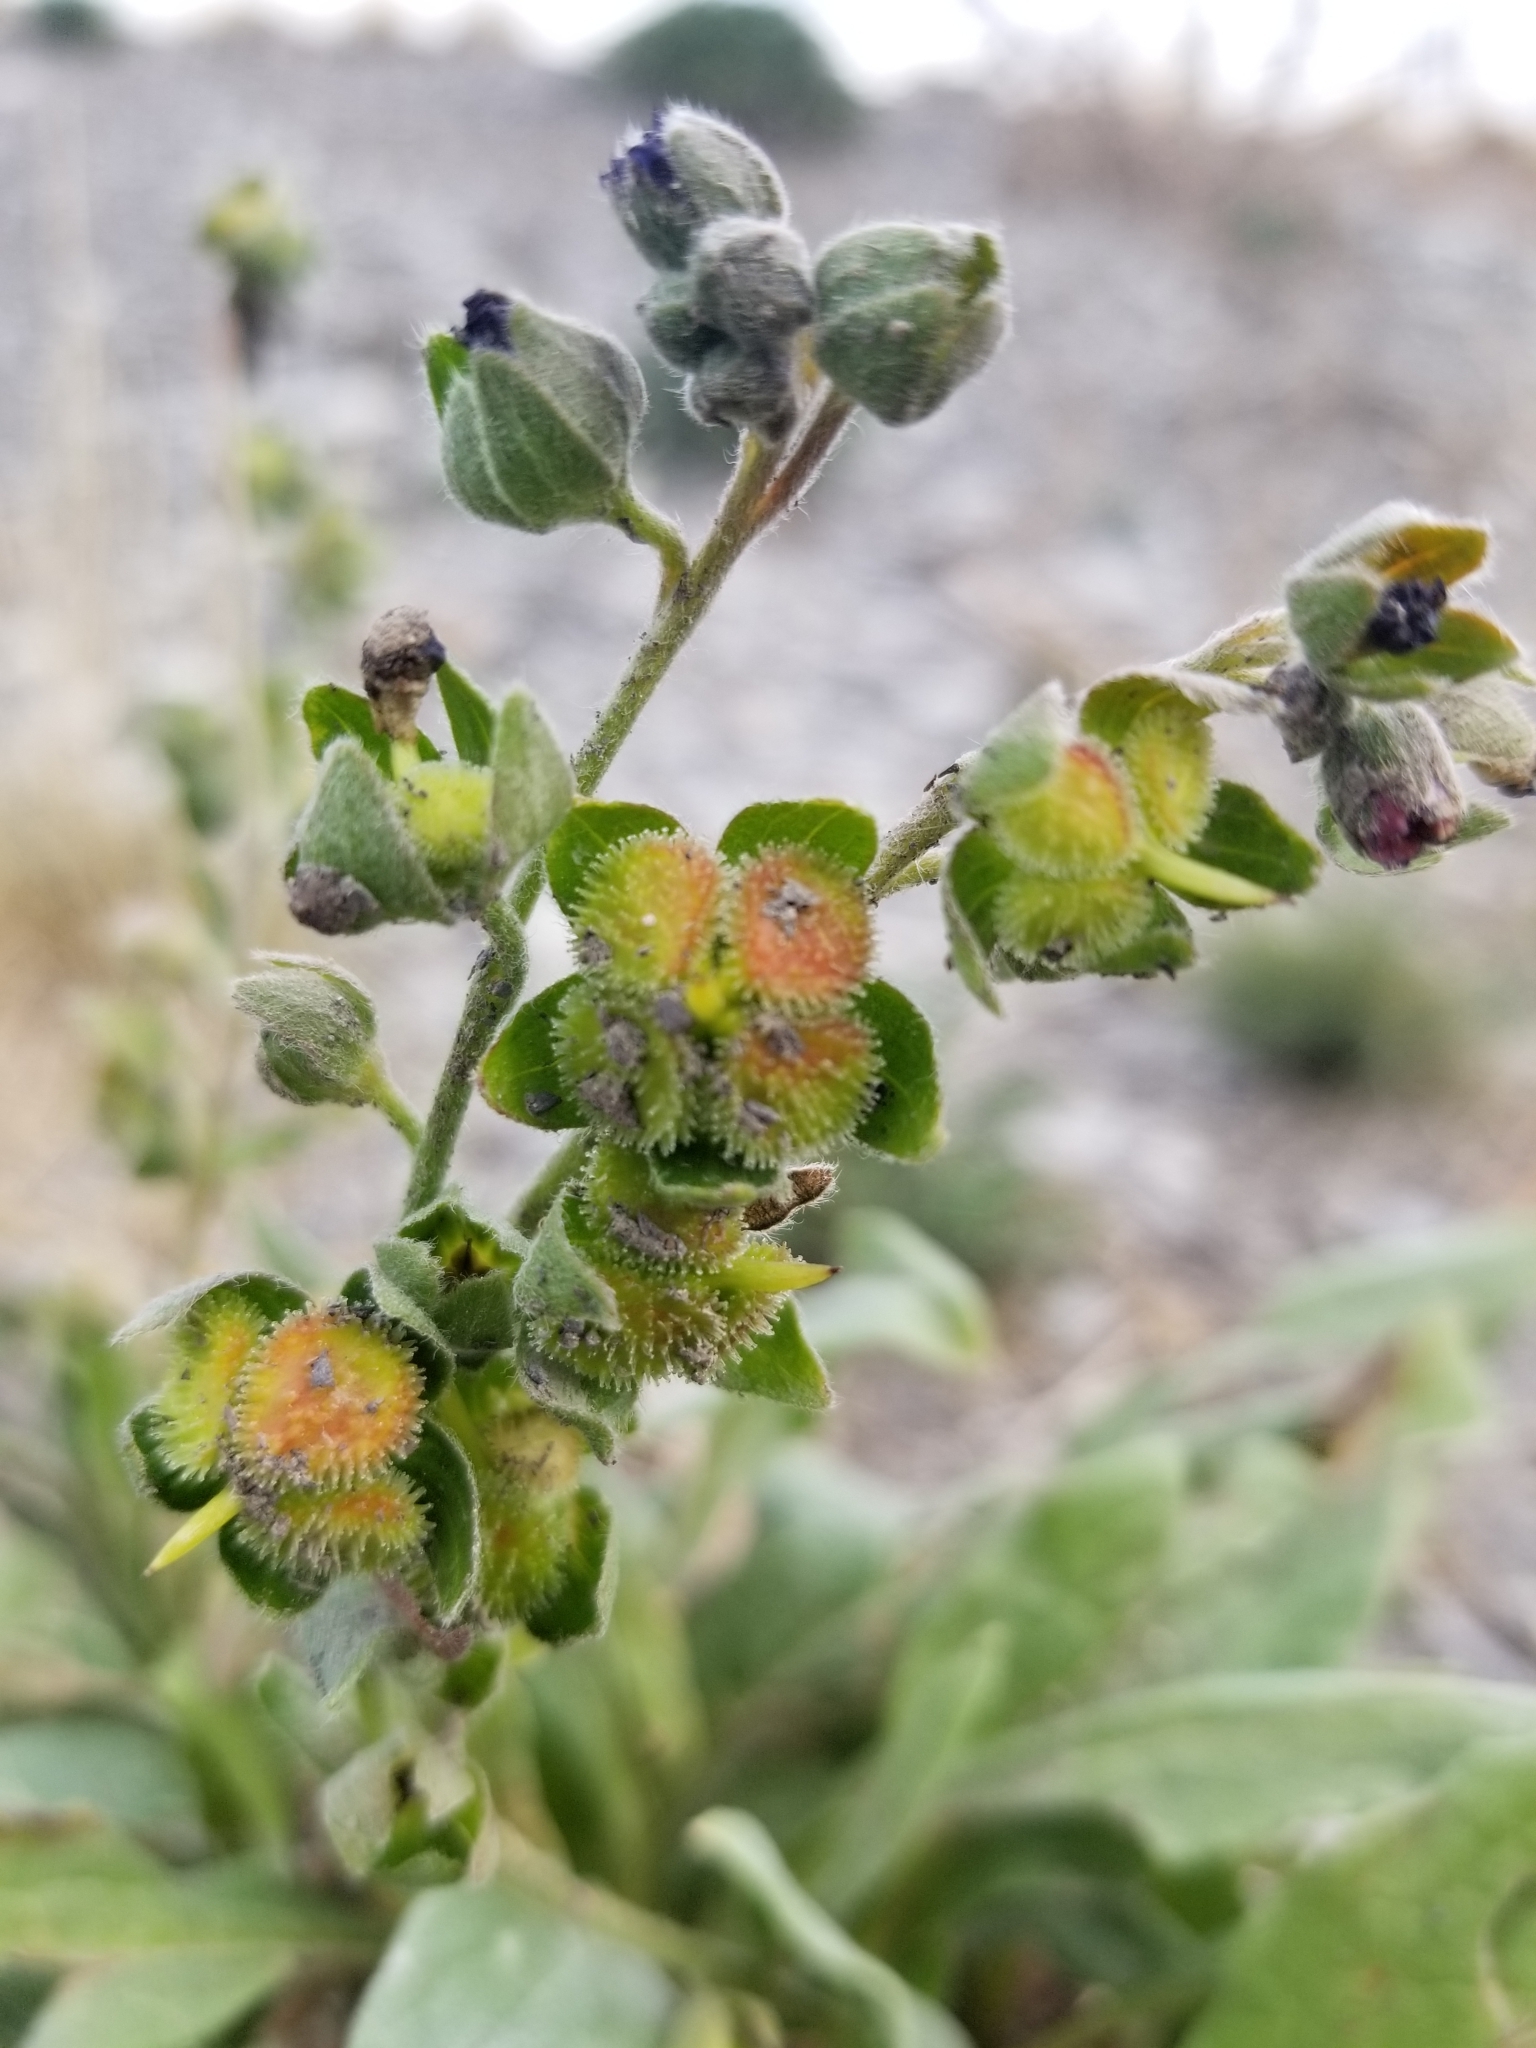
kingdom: Plantae
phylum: Tracheophyta
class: Magnoliopsida
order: Boraginales
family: Boraginaceae
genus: Cynoglossum
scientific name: Cynoglossum officinale
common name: Hound's-tongue
